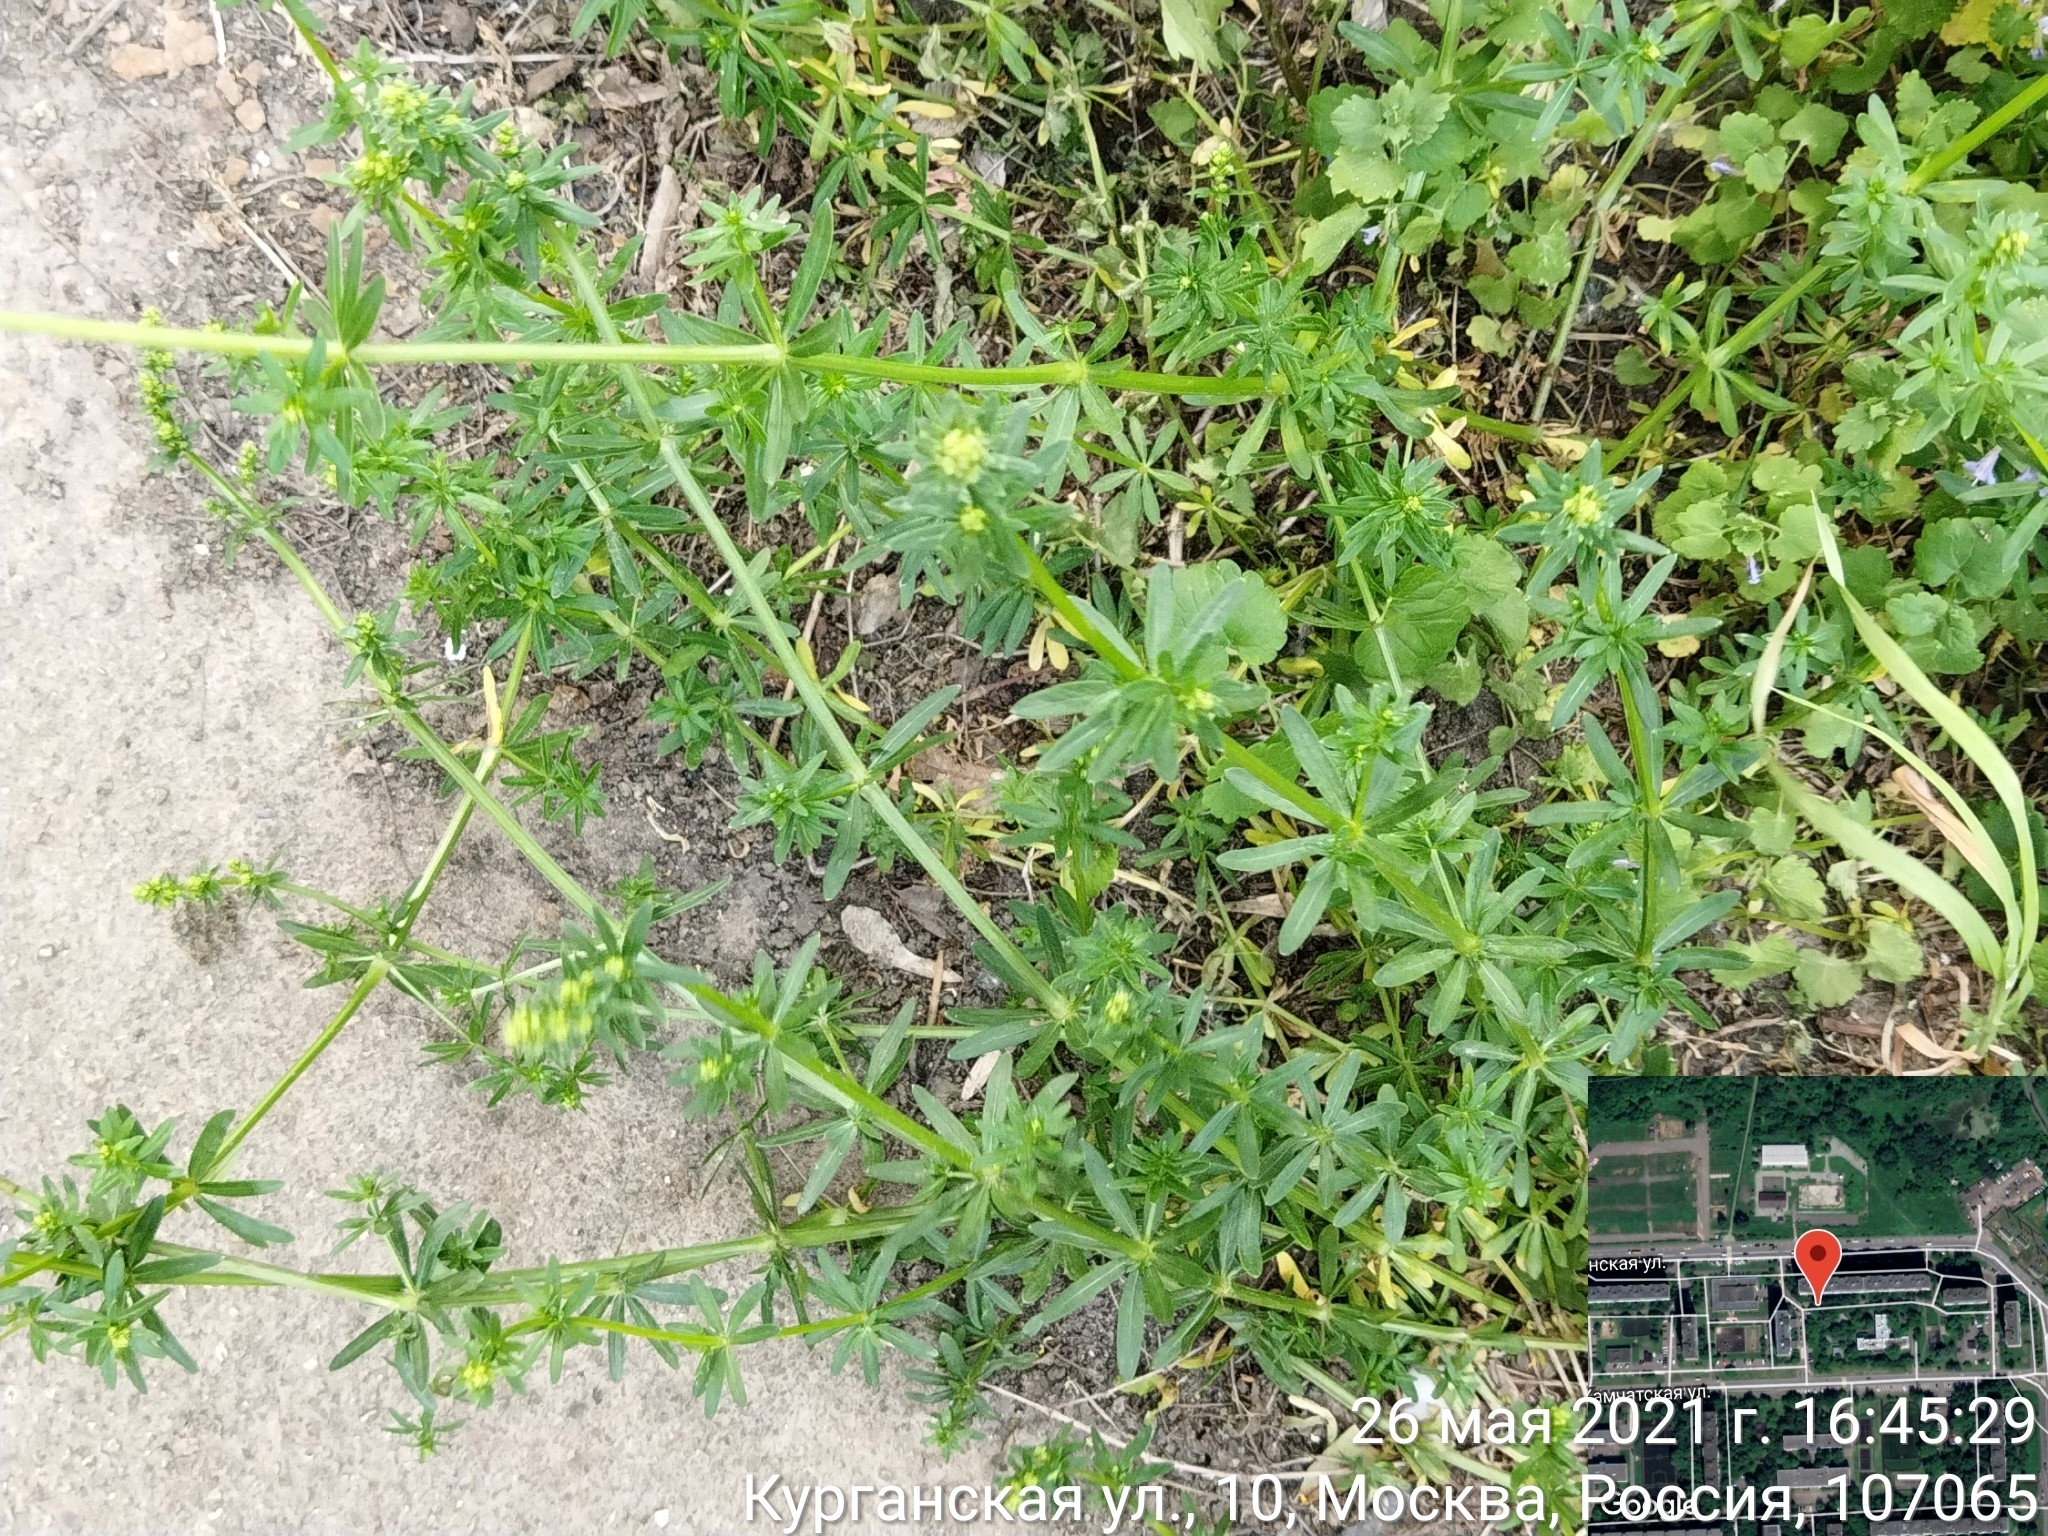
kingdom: Plantae
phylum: Tracheophyta
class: Magnoliopsida
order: Gentianales
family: Rubiaceae
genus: Galium
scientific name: Galium mollugo
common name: Hedge bedstraw
